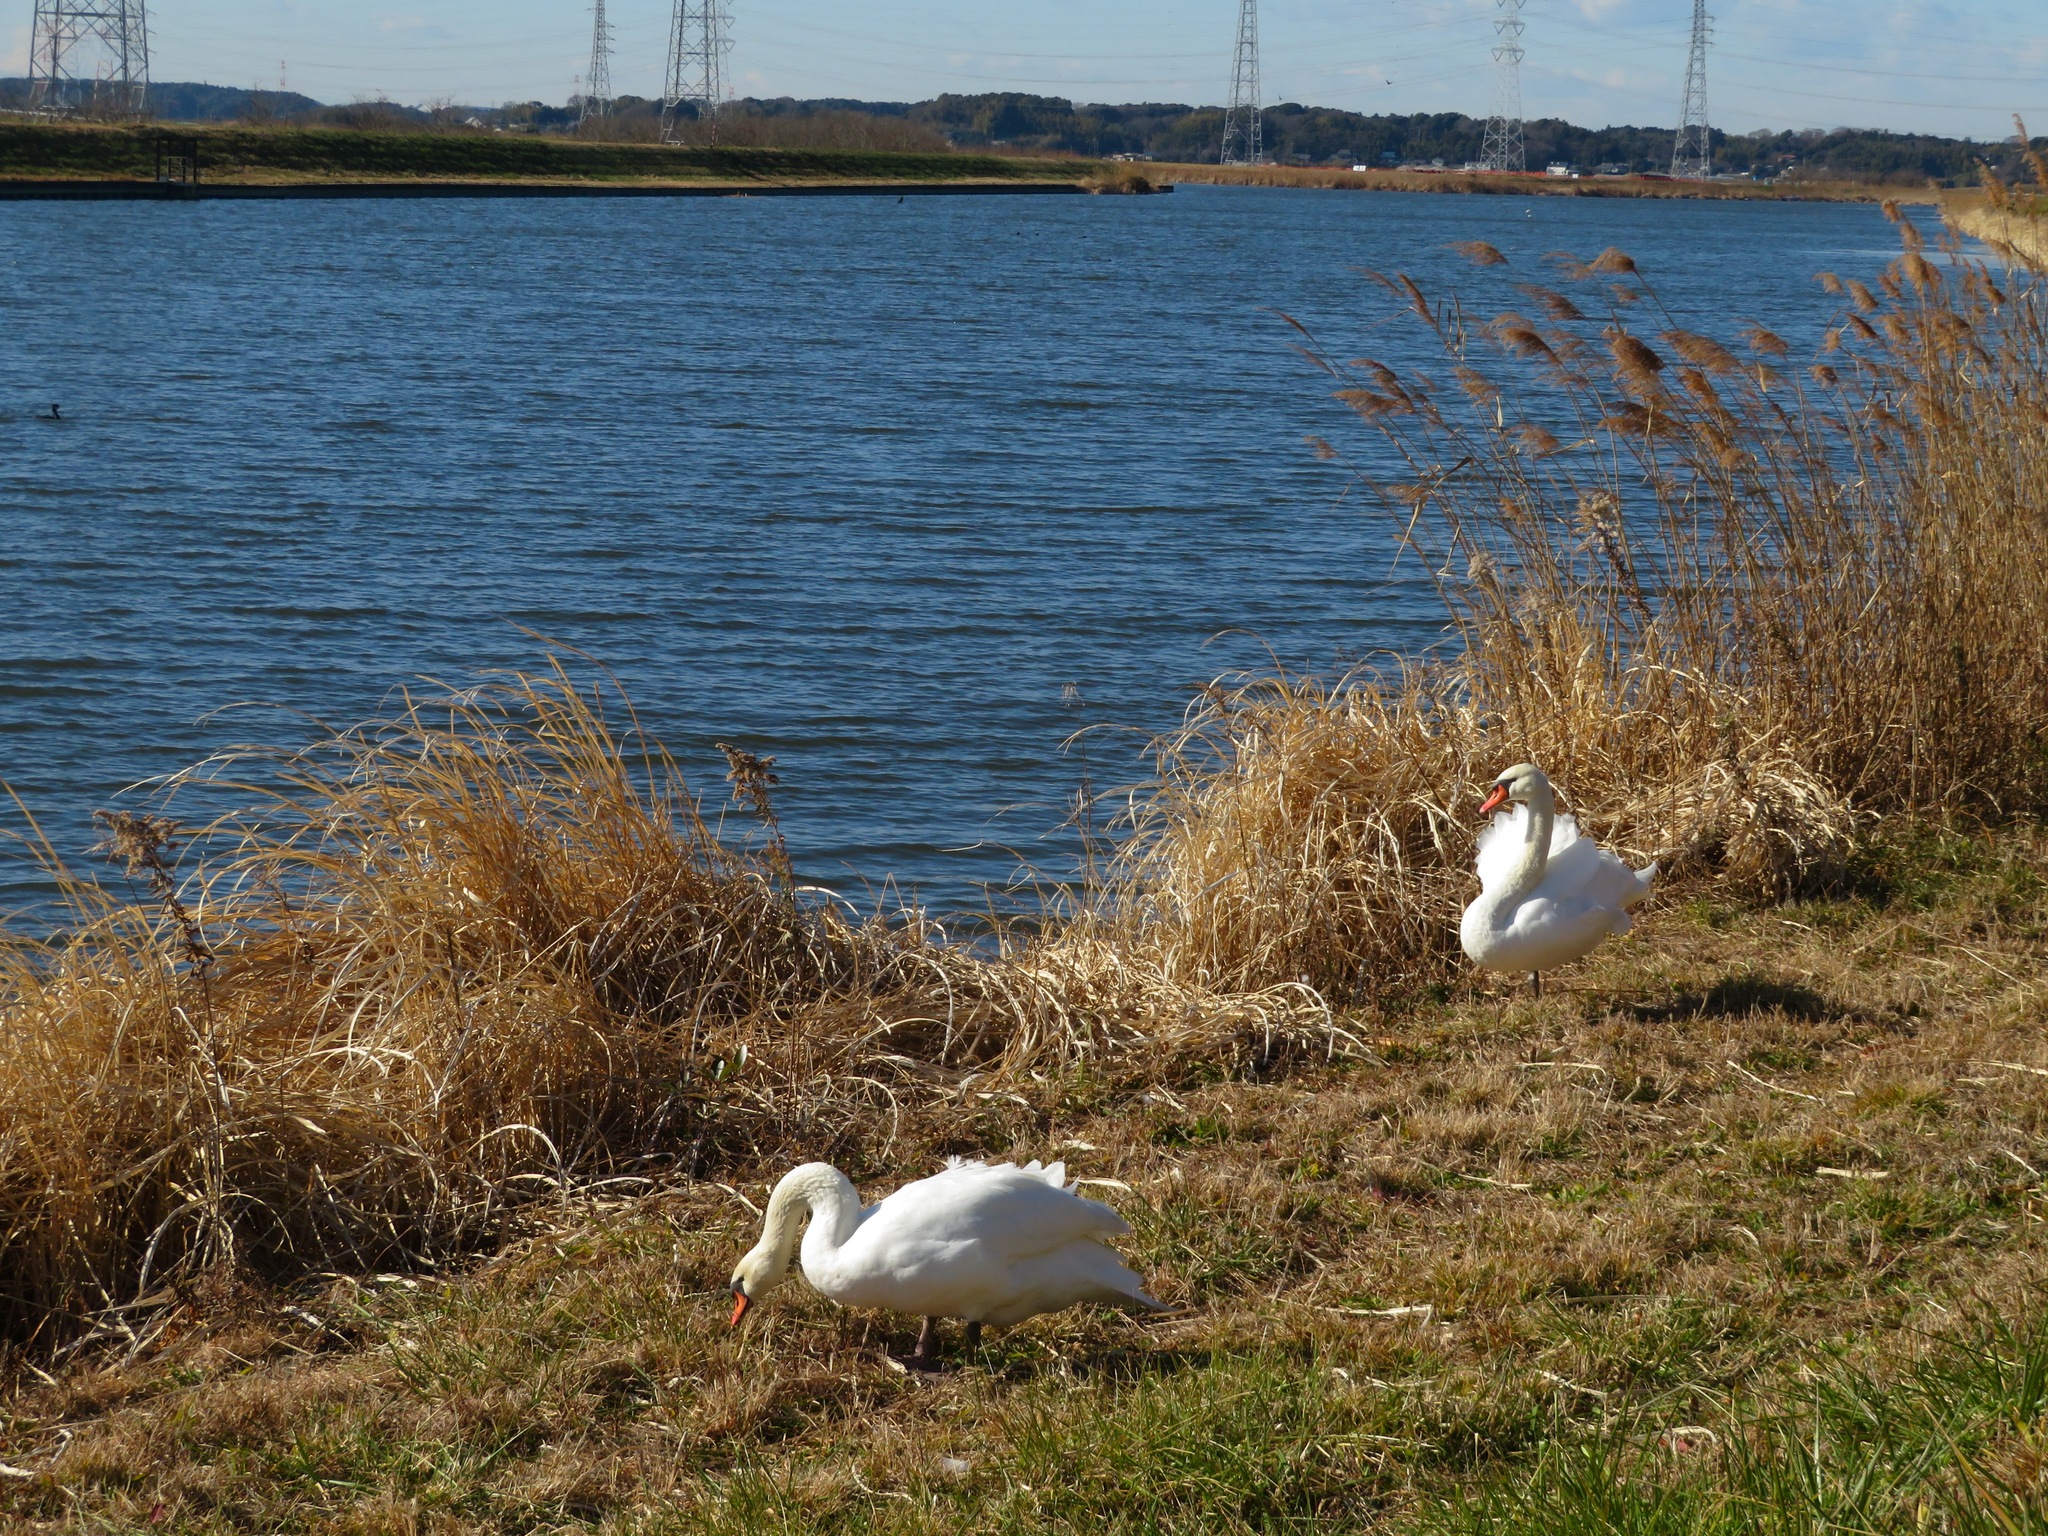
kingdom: Animalia
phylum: Chordata
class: Aves
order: Anseriformes
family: Anatidae
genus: Cygnus
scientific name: Cygnus olor
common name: Mute swan
